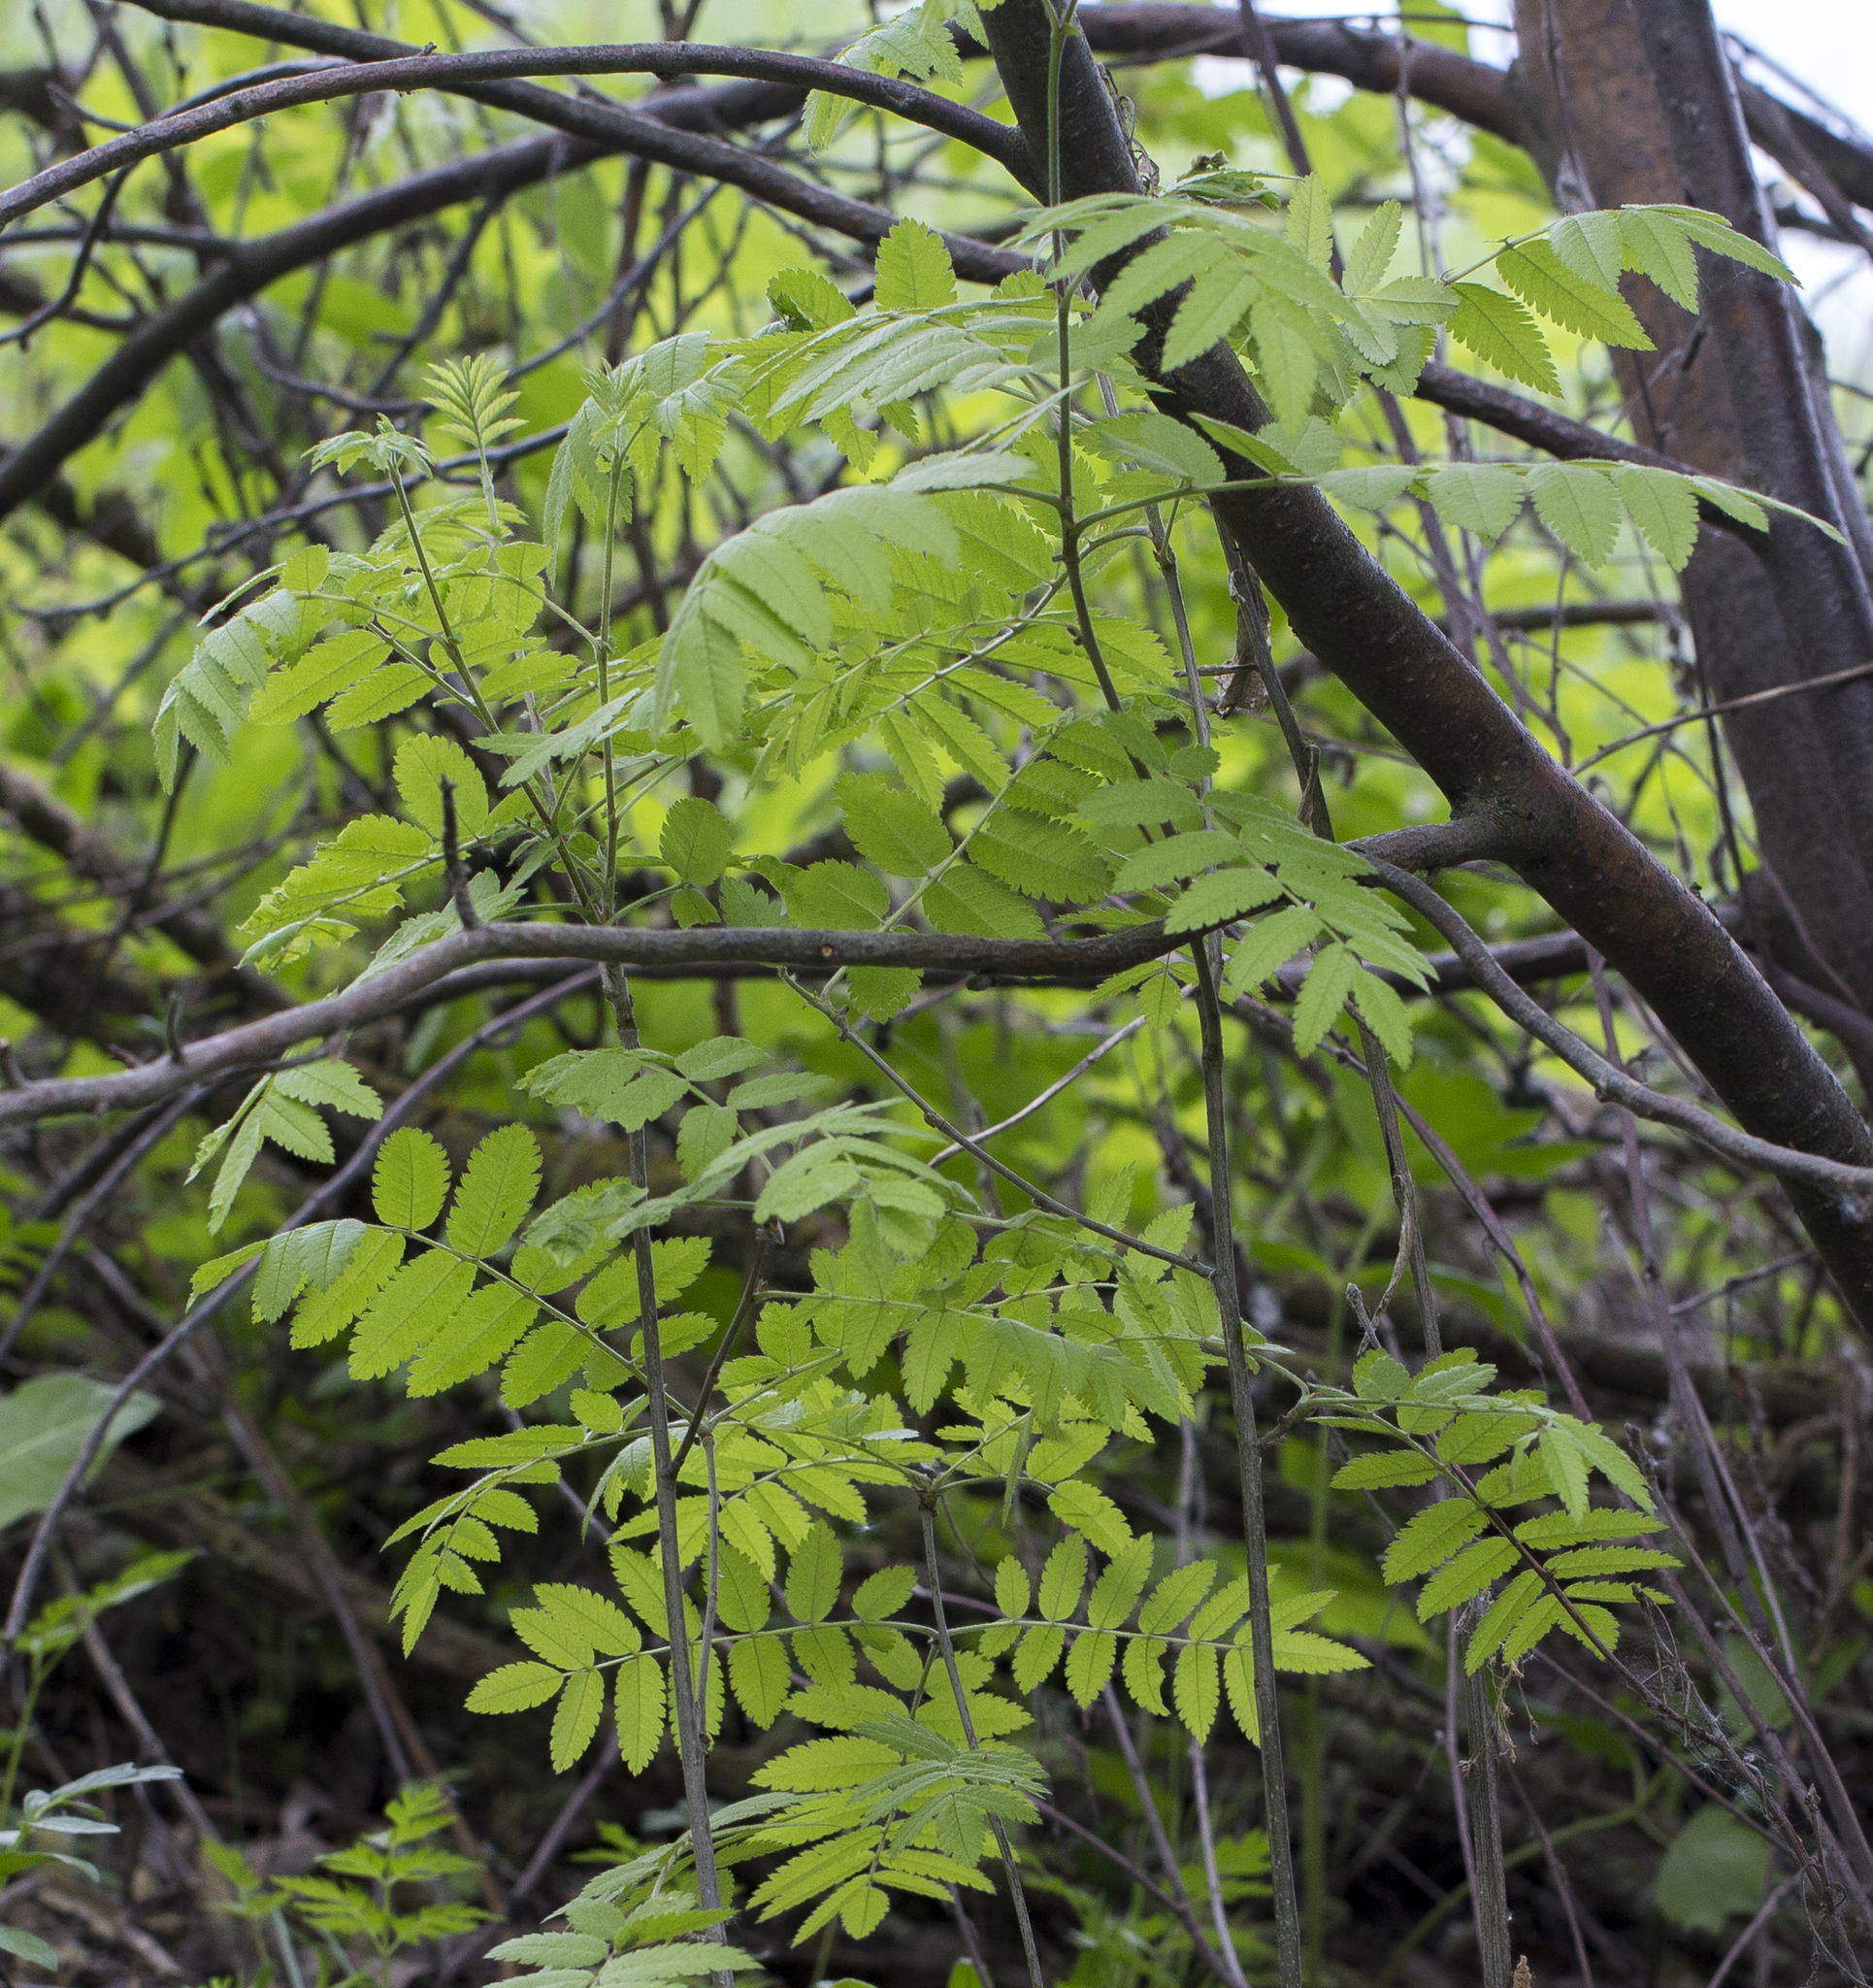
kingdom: Plantae
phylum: Tracheophyta
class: Magnoliopsida
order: Rosales
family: Rosaceae
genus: Sorbus
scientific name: Sorbus aucuparia
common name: Rowan
